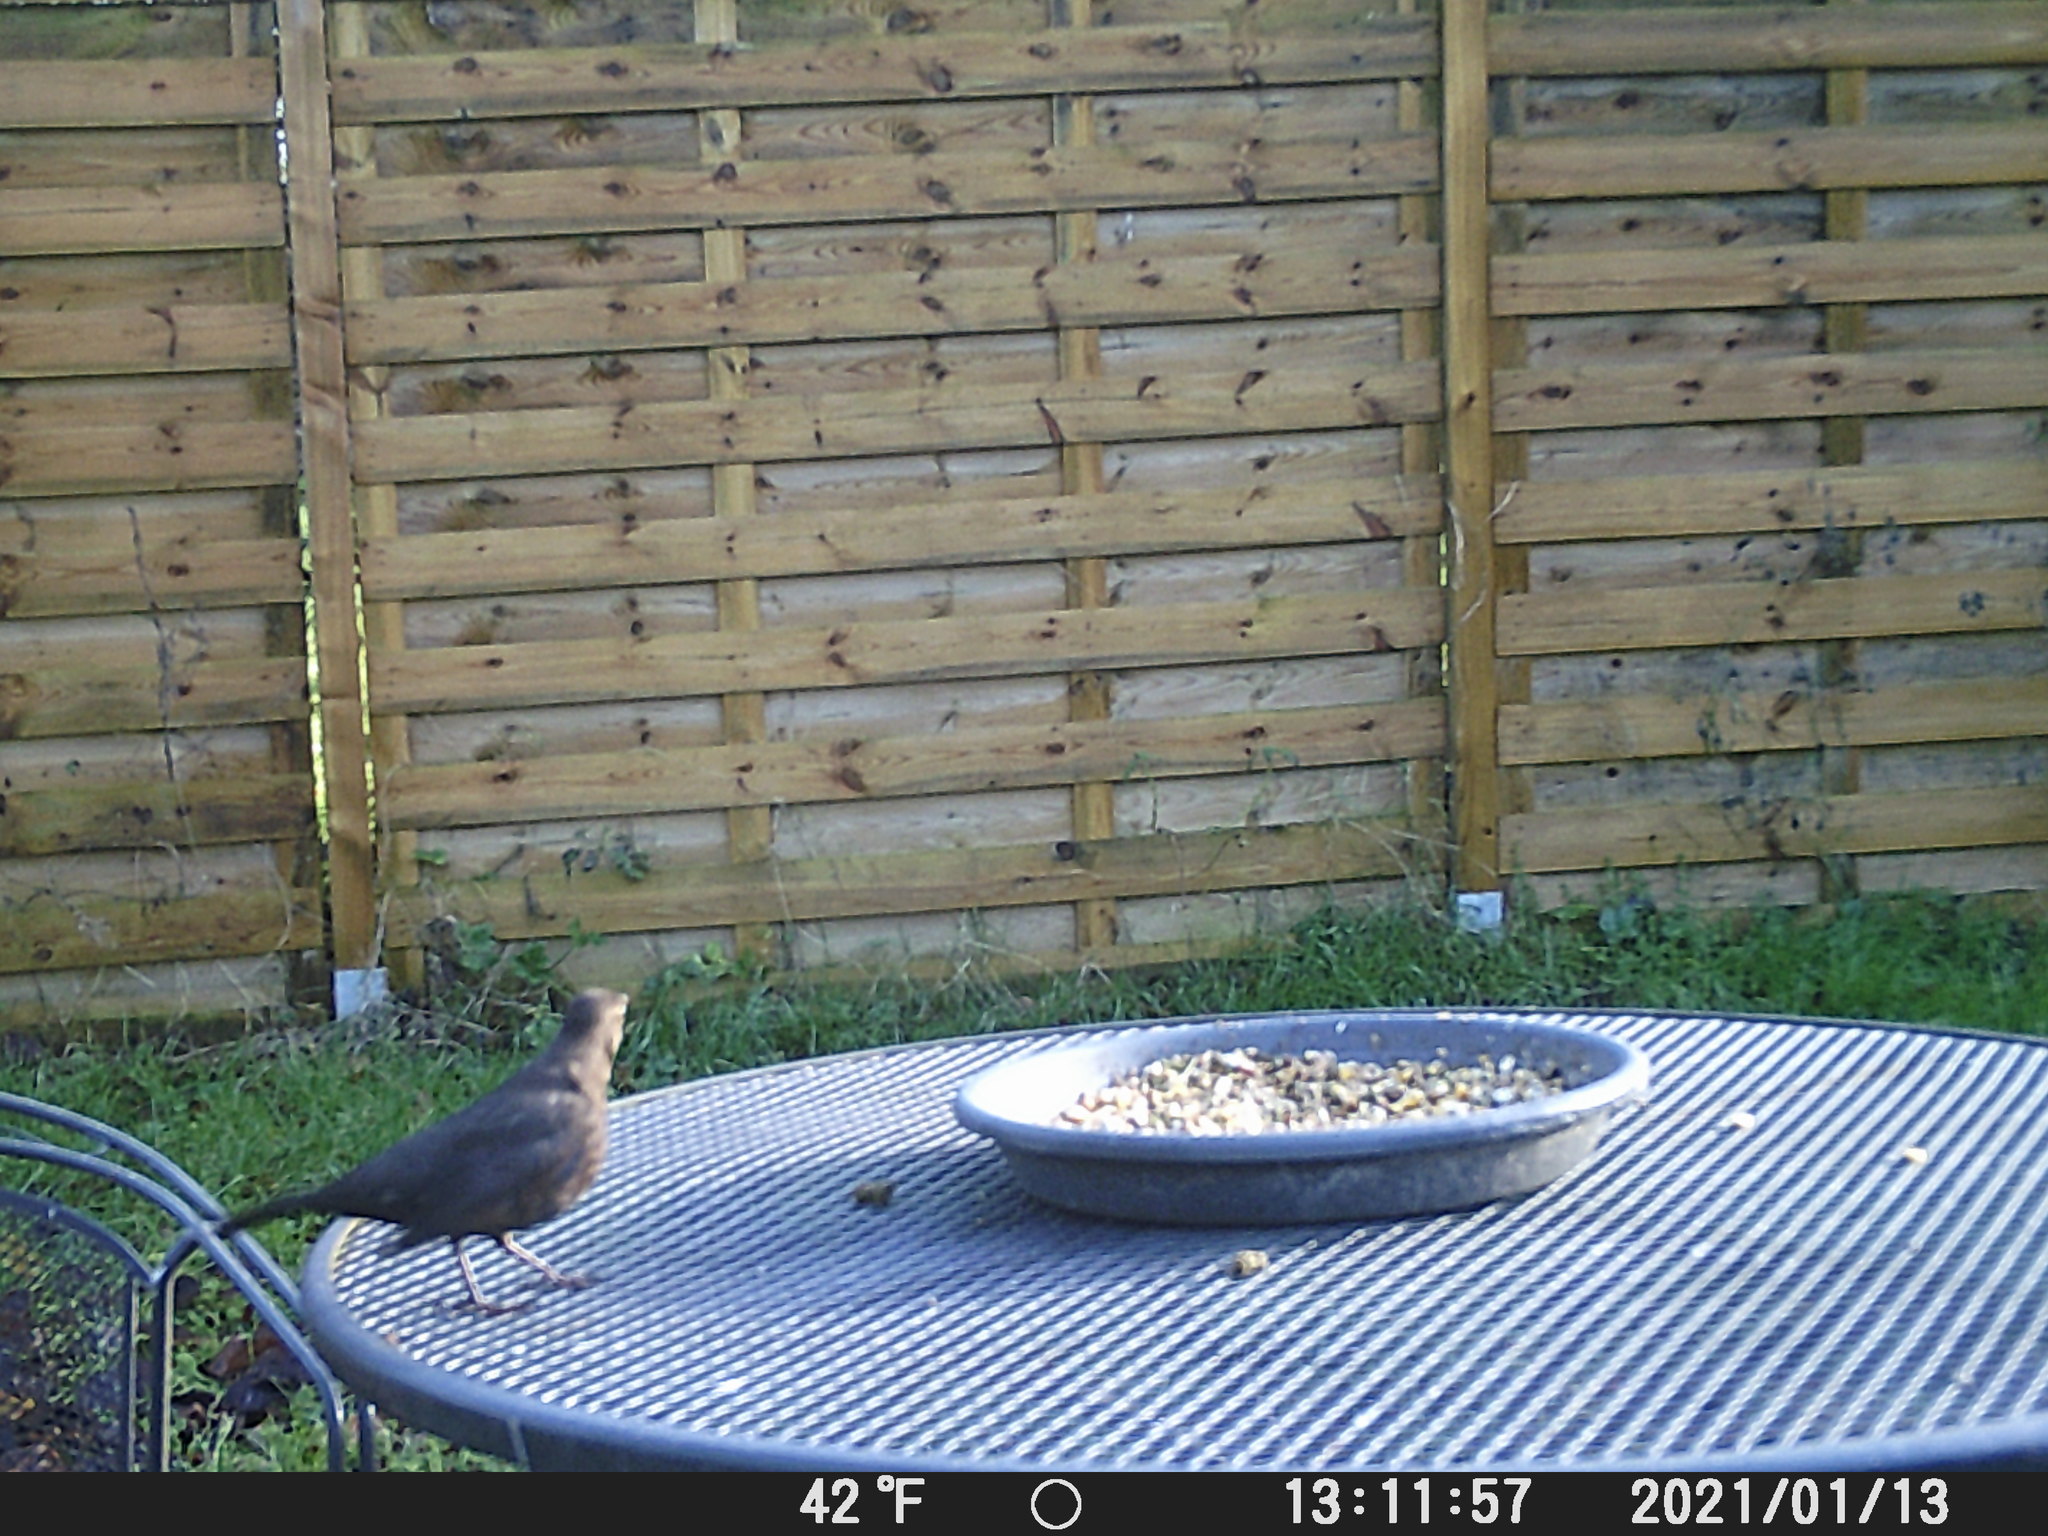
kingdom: Animalia
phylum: Chordata
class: Aves
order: Passeriformes
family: Turdidae
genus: Turdus
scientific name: Turdus merula
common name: Common blackbird
